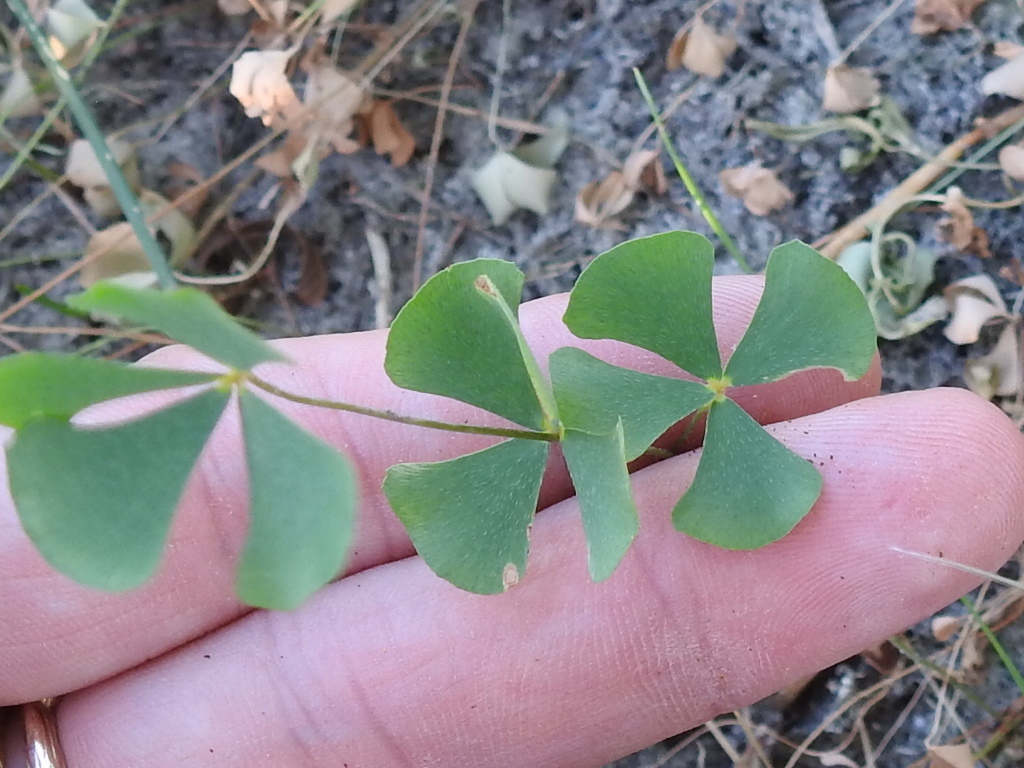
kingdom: Plantae
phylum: Tracheophyta
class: Polypodiopsida
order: Salviniales
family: Marsileaceae
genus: Marsilea
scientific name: Marsilea vestita
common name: Hooked-pepperwort
